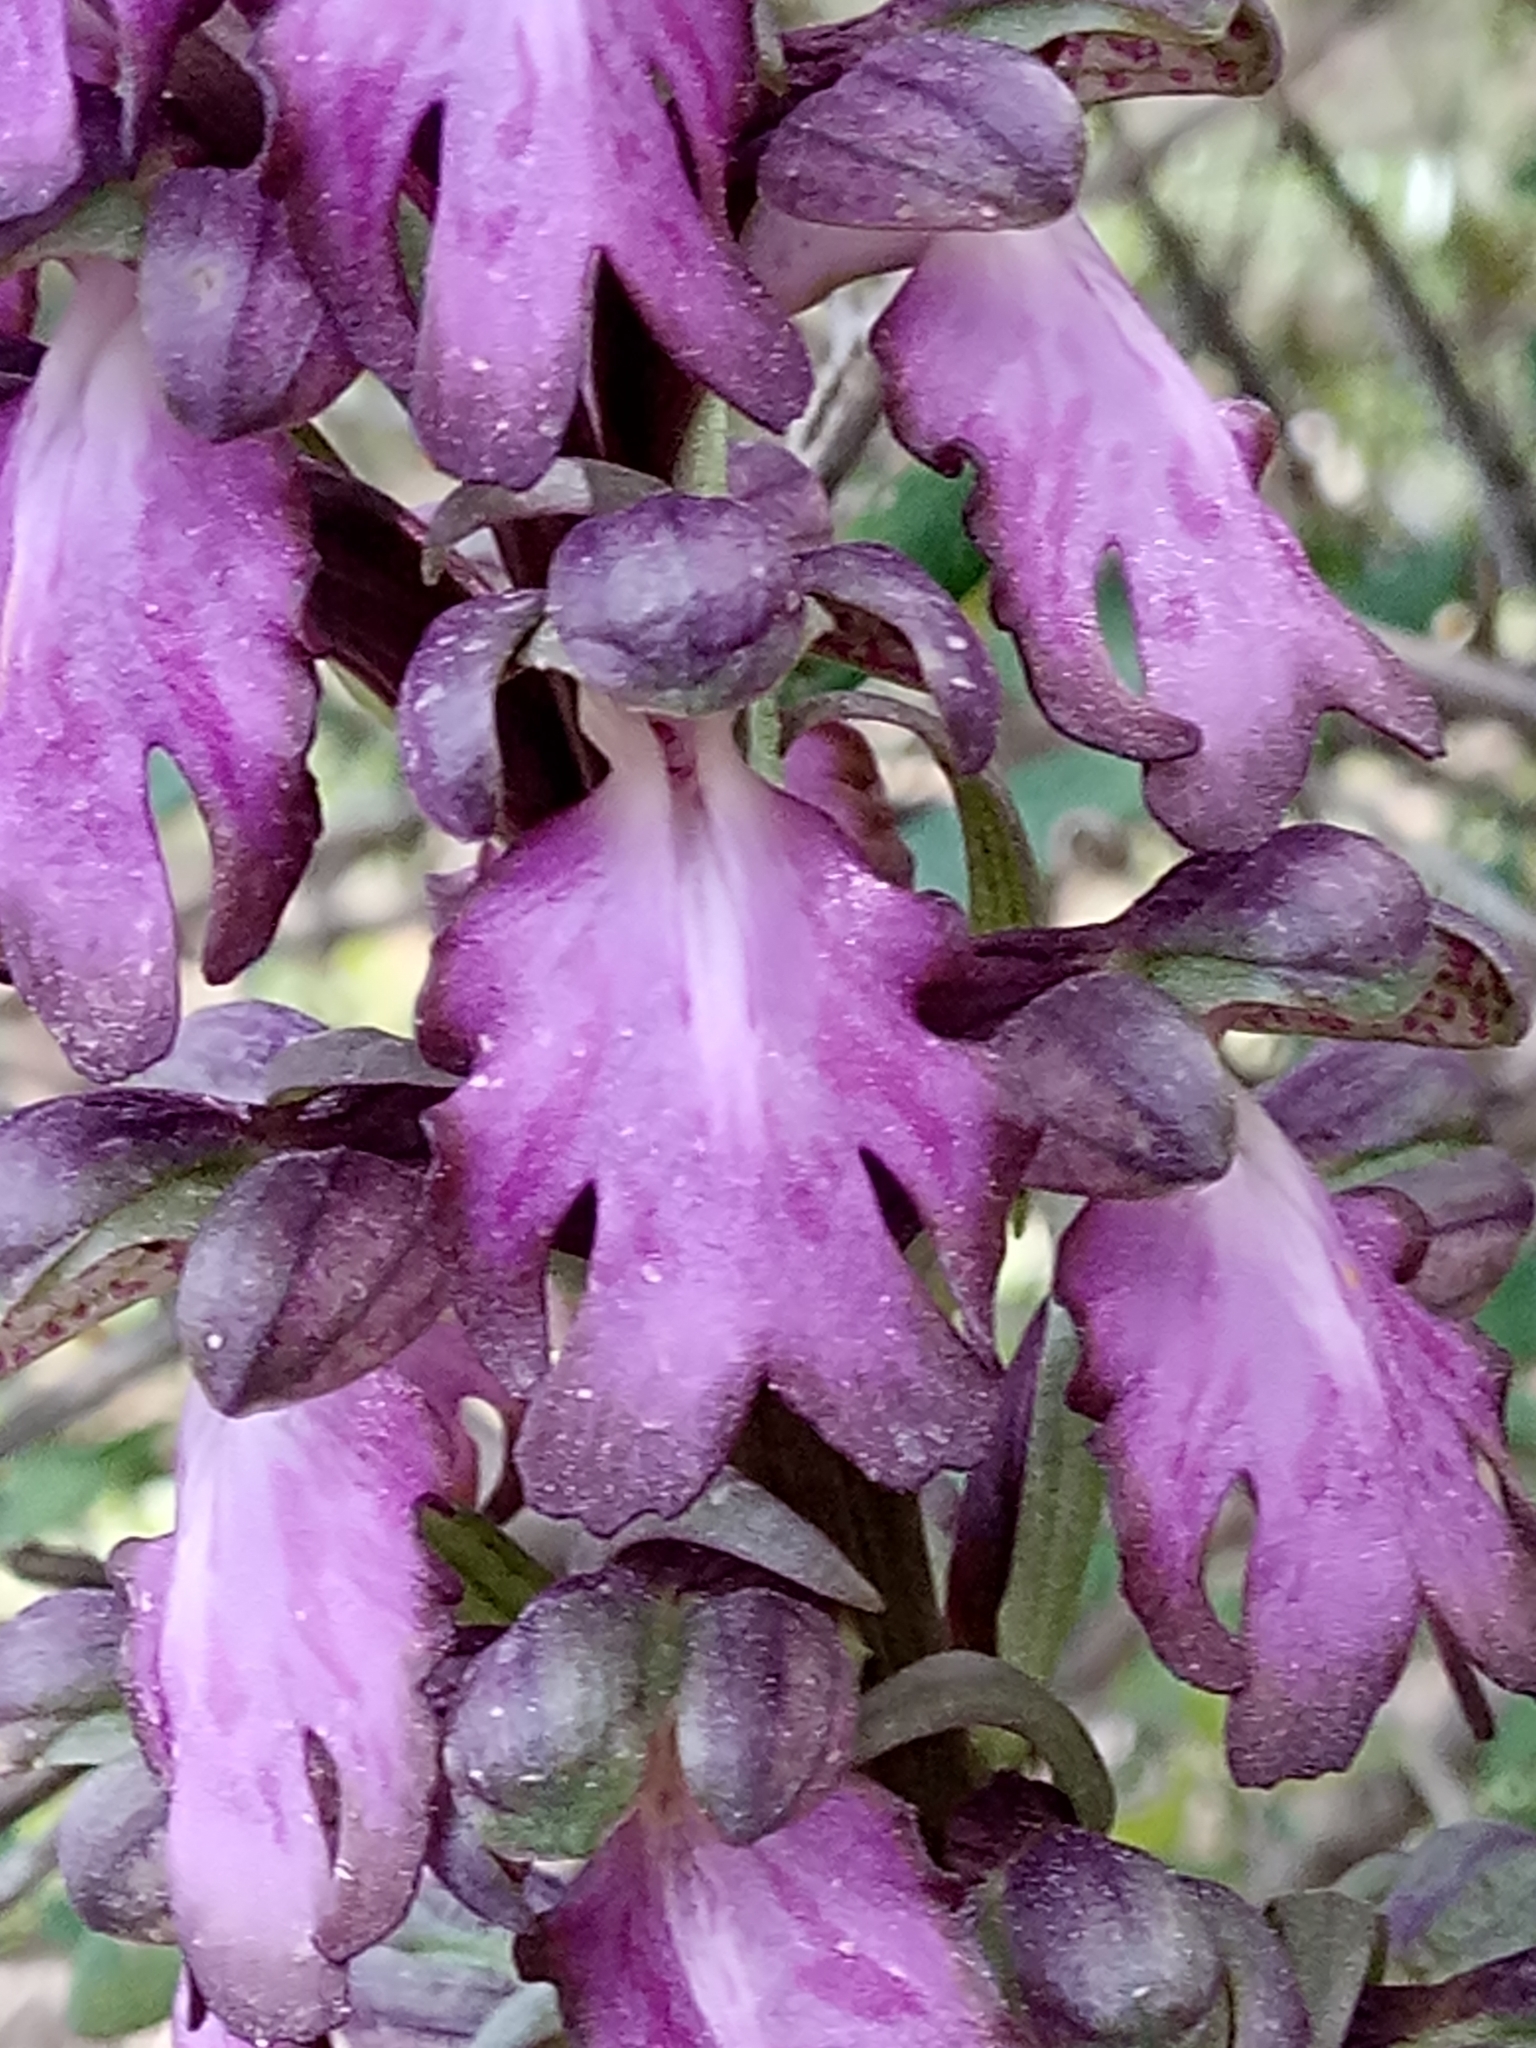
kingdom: Plantae
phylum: Tracheophyta
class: Liliopsida
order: Asparagales
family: Orchidaceae
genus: Himantoglossum
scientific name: Himantoglossum robertianum
